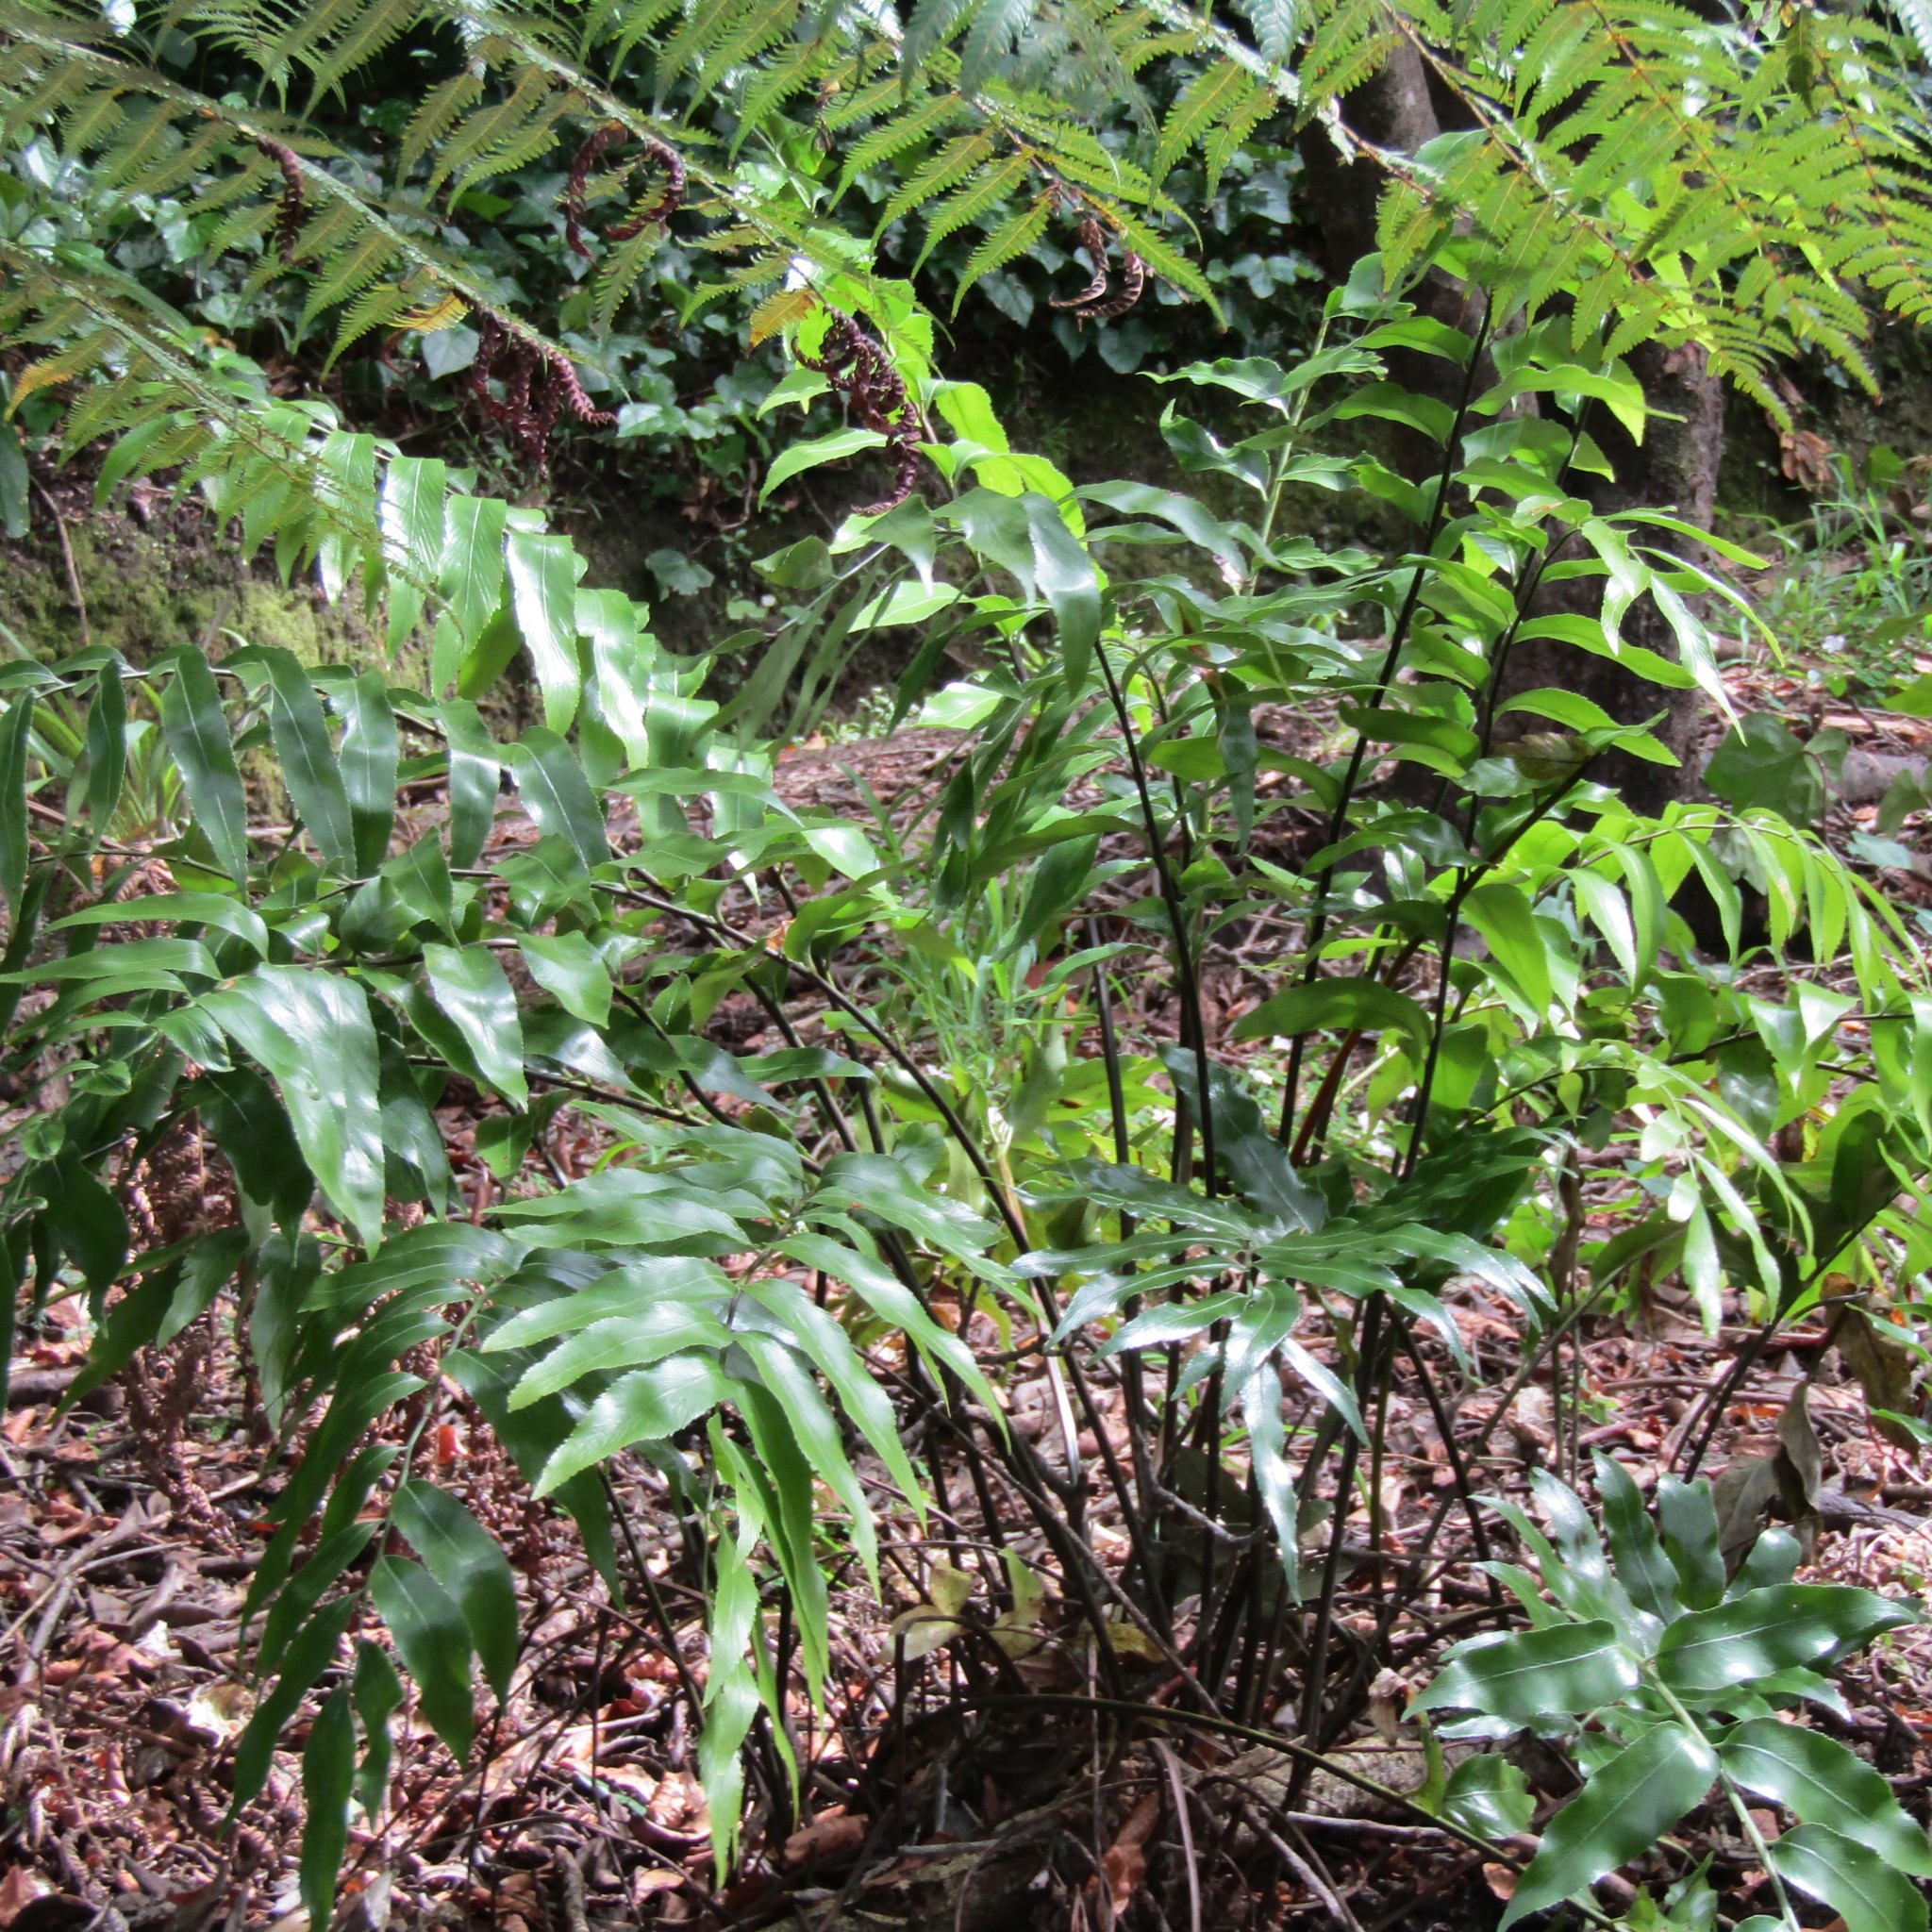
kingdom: Plantae
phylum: Tracheophyta
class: Polypodiopsida
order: Polypodiales
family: Aspleniaceae
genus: Asplenium
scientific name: Asplenium oblongifolium
